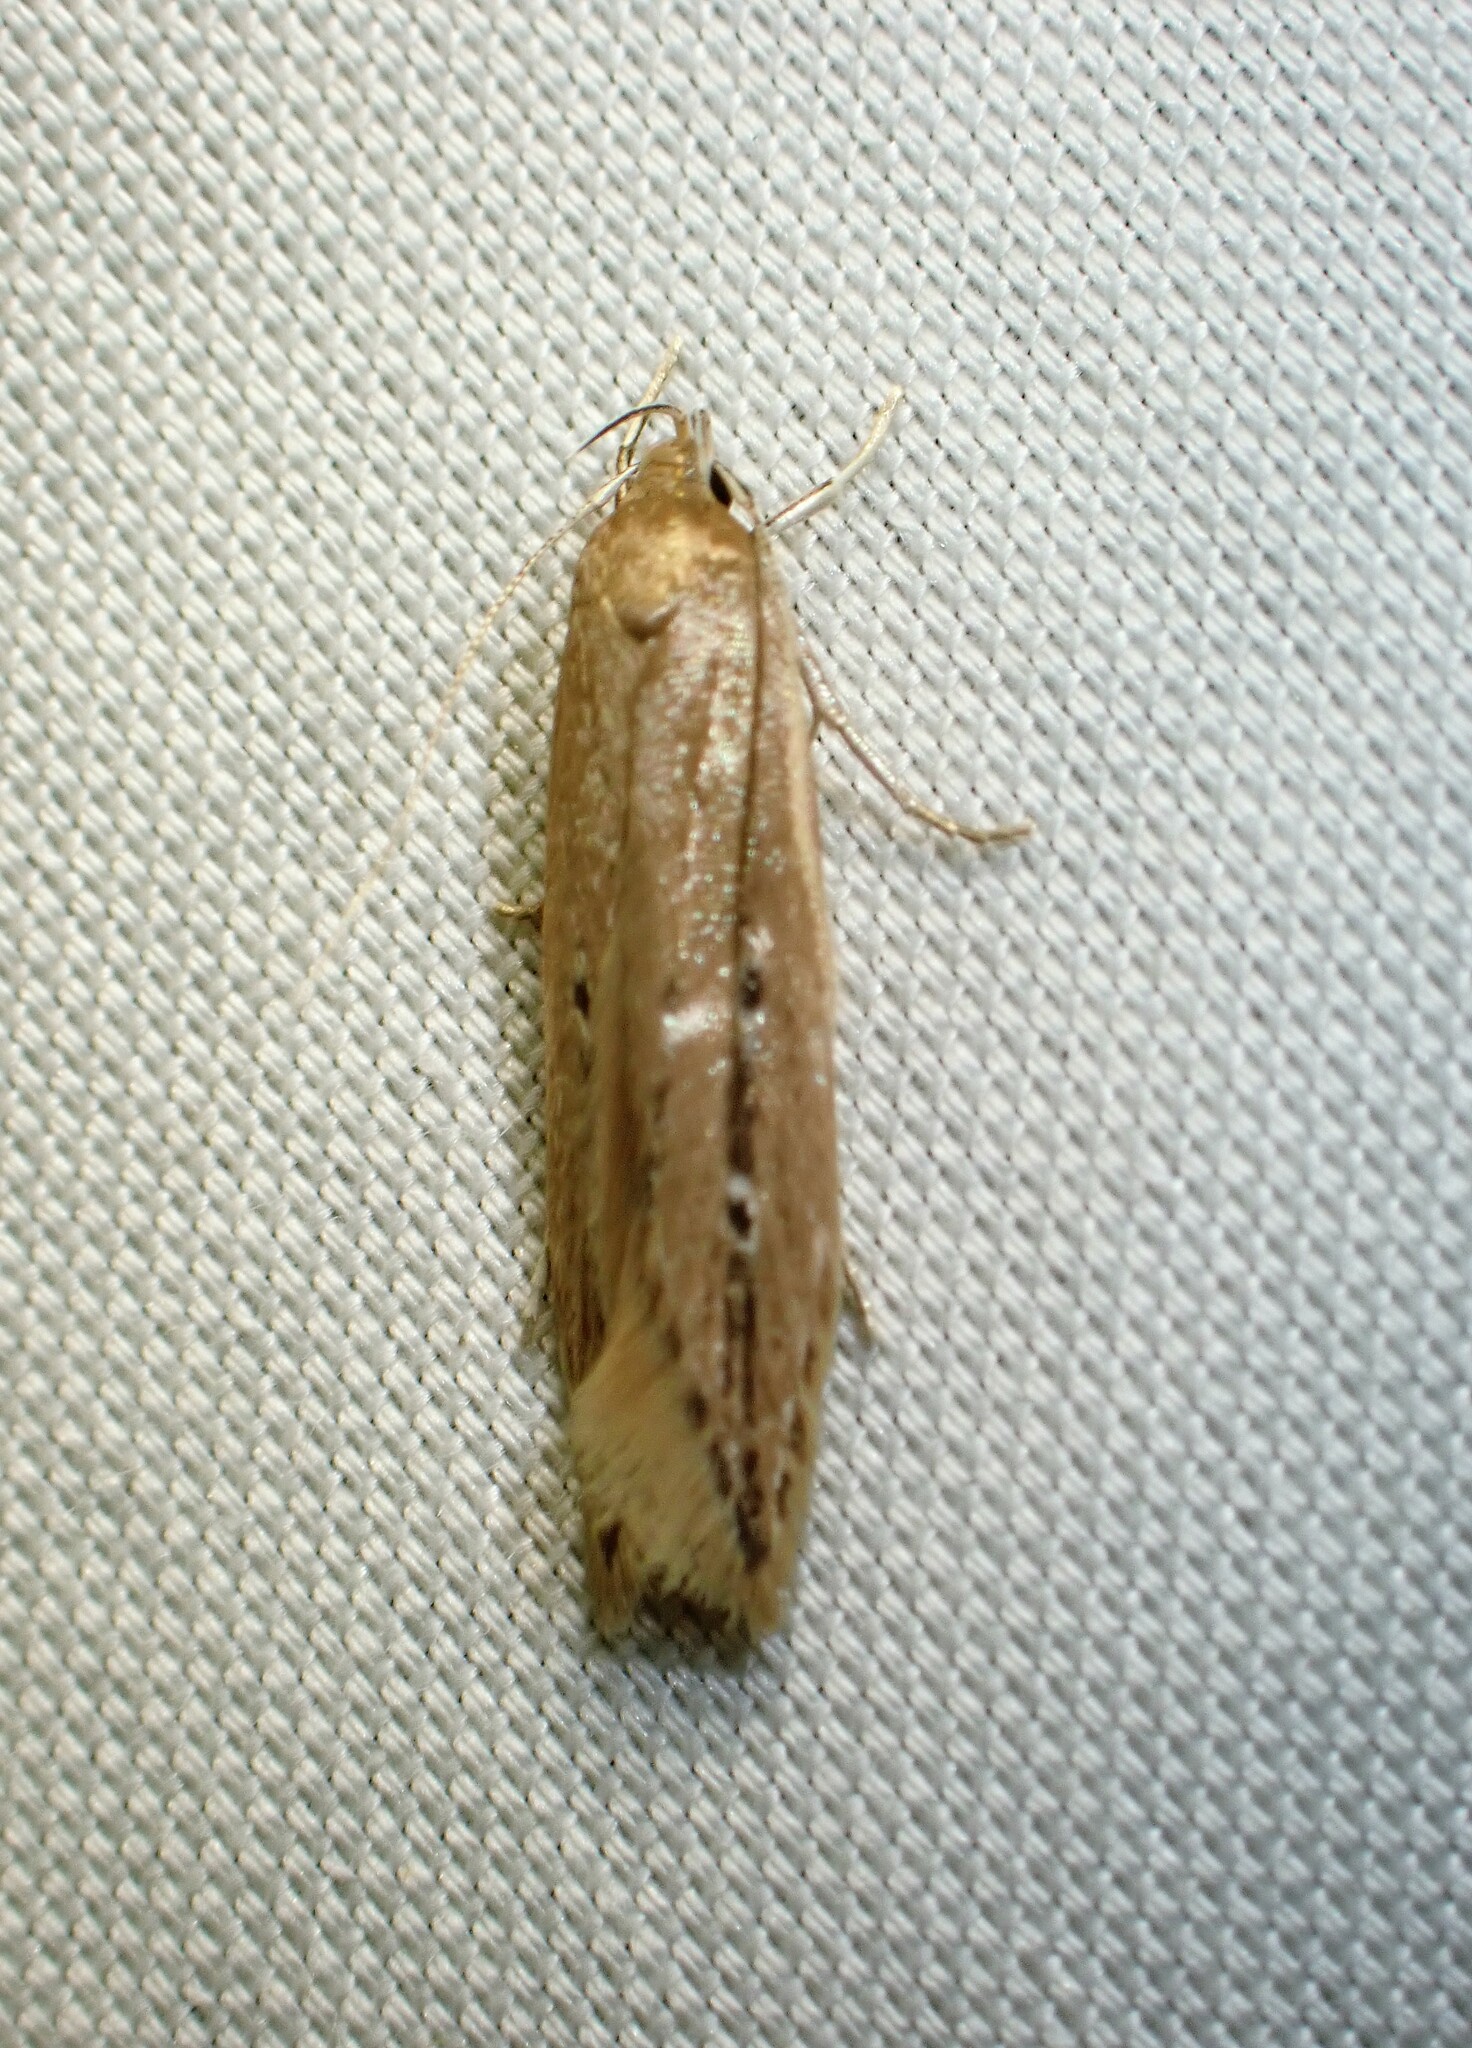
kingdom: Animalia
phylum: Arthropoda
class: Insecta
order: Lepidoptera
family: Cosmopterigidae
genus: Limnaecia
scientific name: Limnaecia phragmitella
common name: Bulrush cosmet
